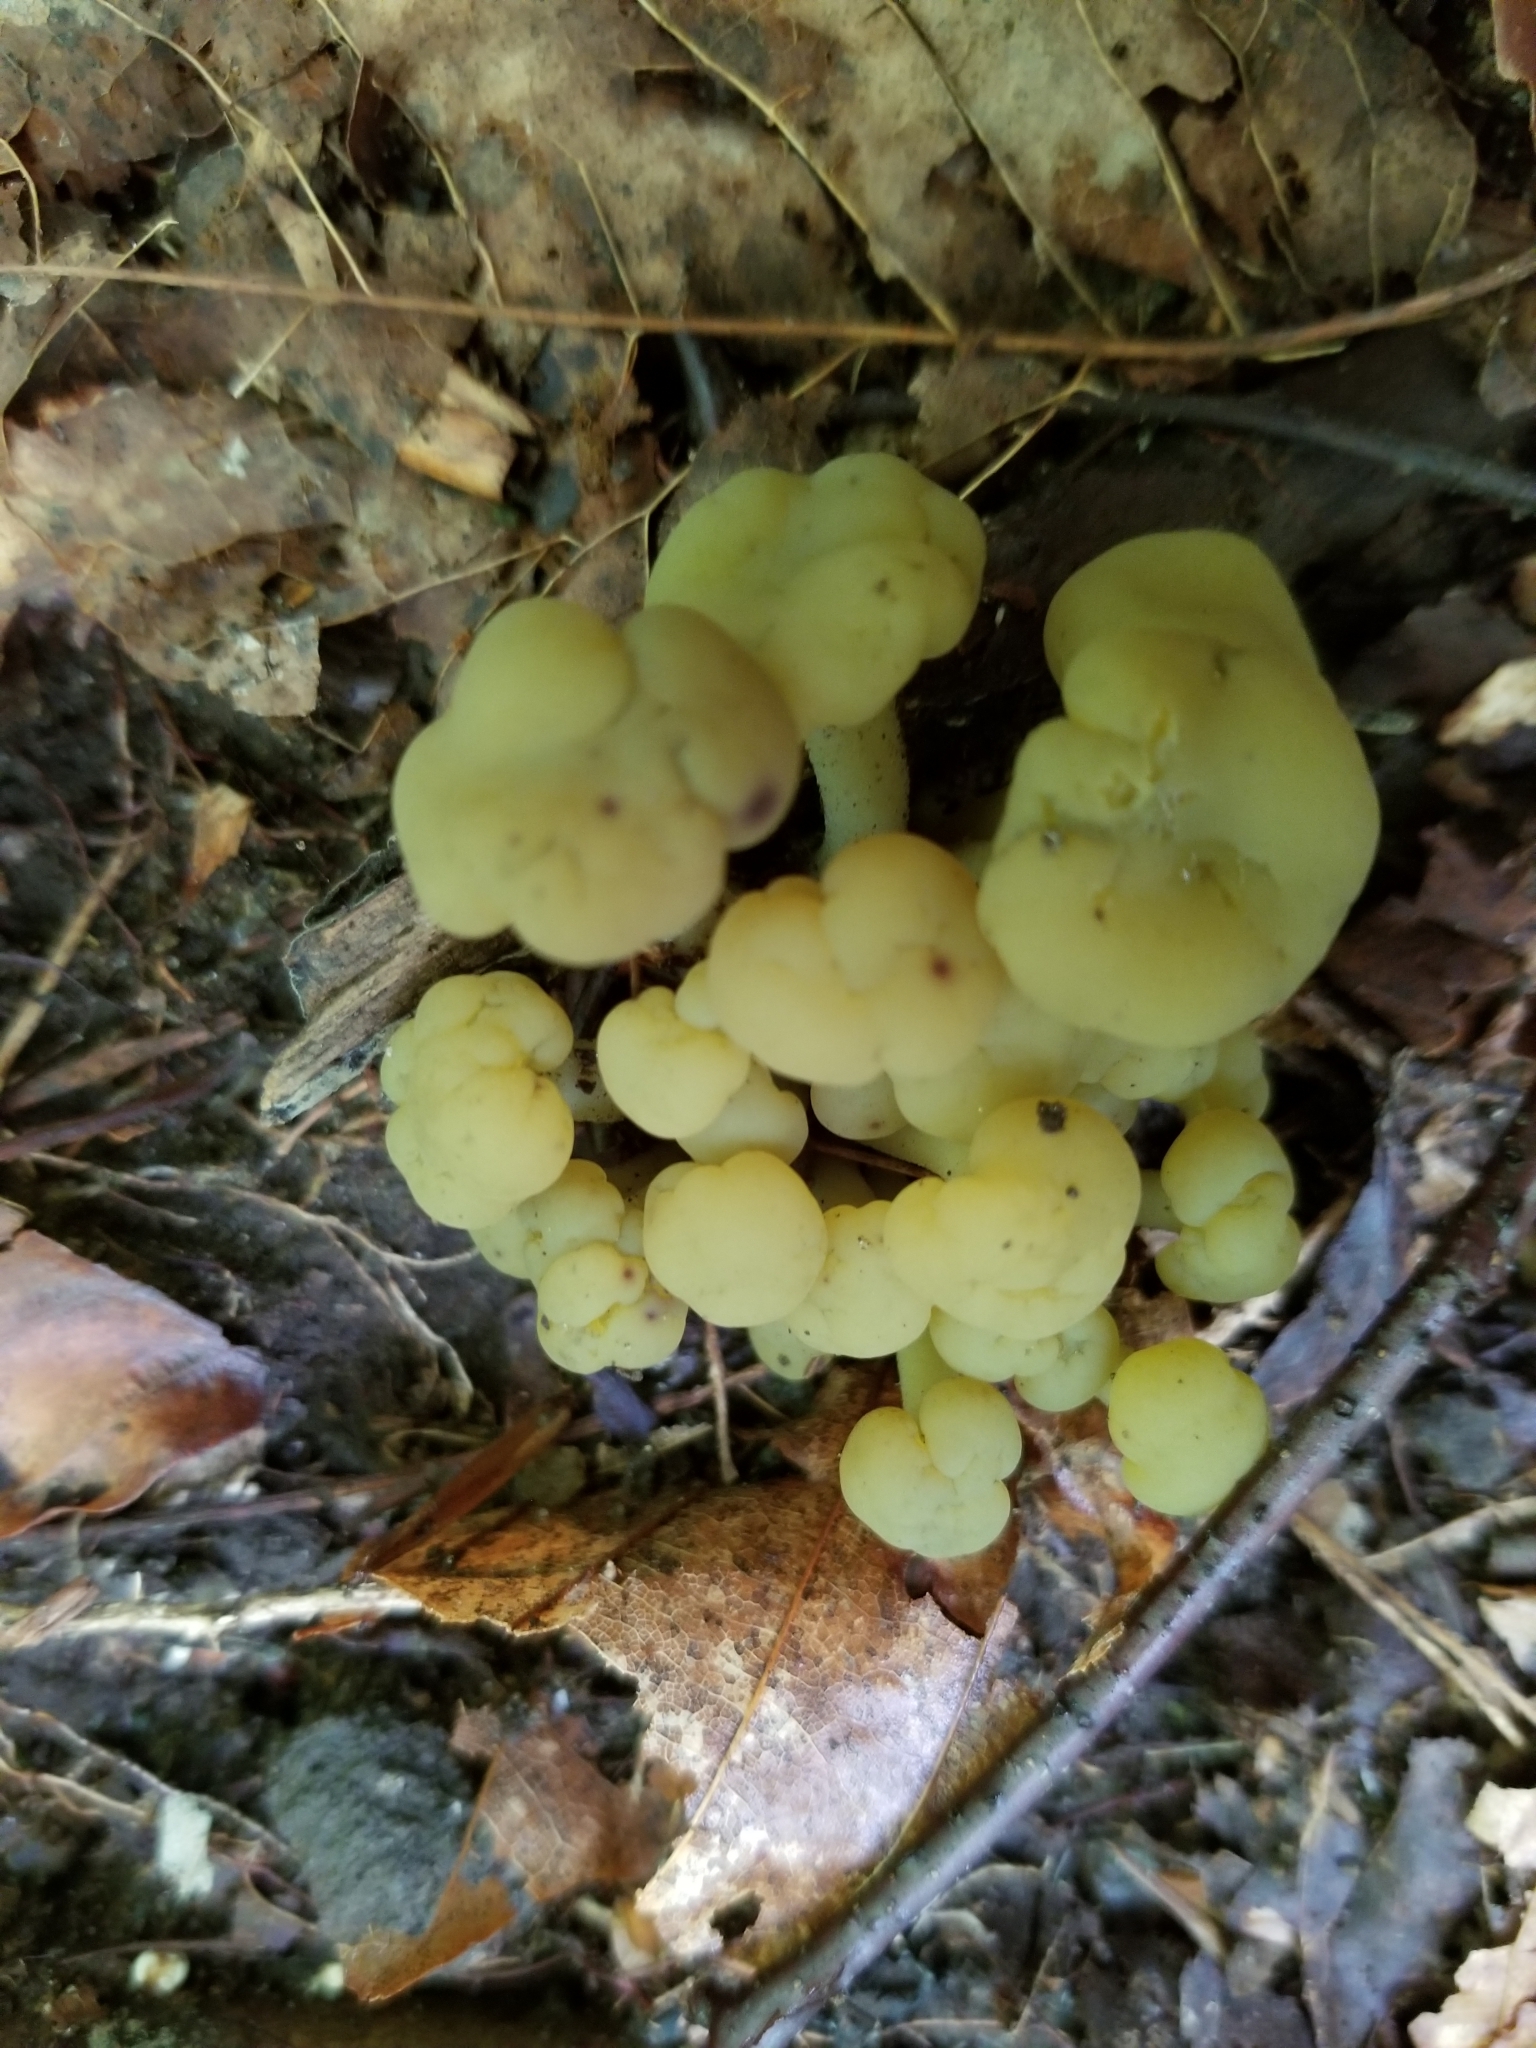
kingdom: Fungi
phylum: Ascomycota
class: Leotiomycetes
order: Leotiales
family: Leotiaceae
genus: Leotia
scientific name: Leotia lubrica
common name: Jellybaby
